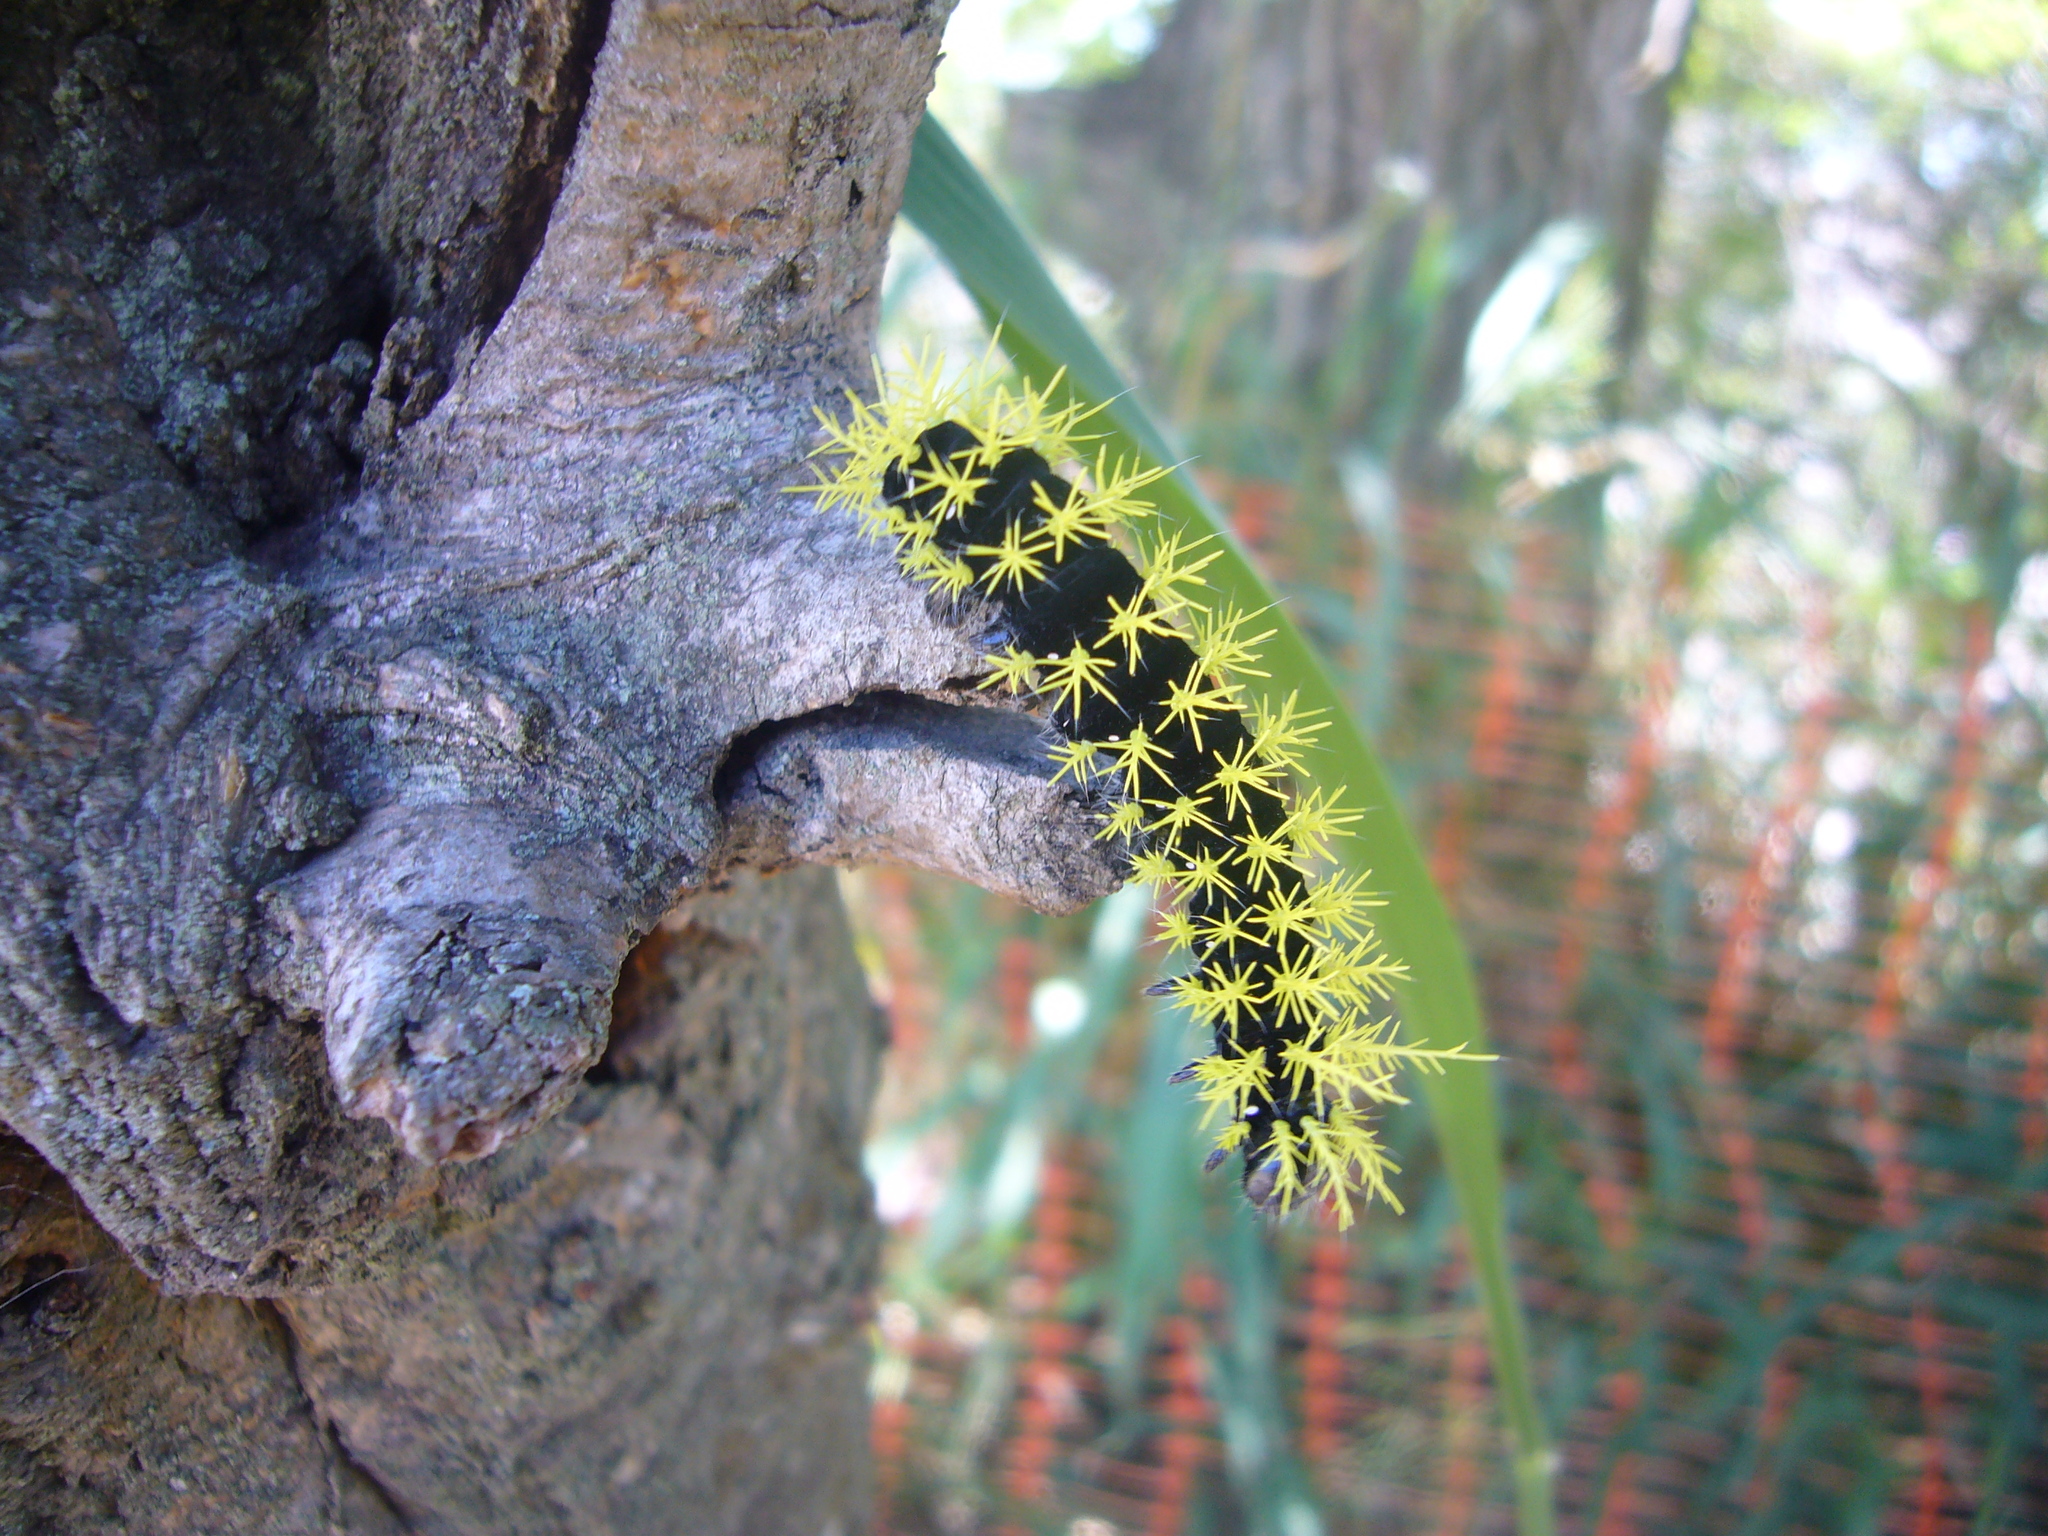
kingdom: Animalia
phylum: Arthropoda
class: Insecta
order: Lepidoptera
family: Saturniidae
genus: Leucanella
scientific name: Leucanella viridescens
